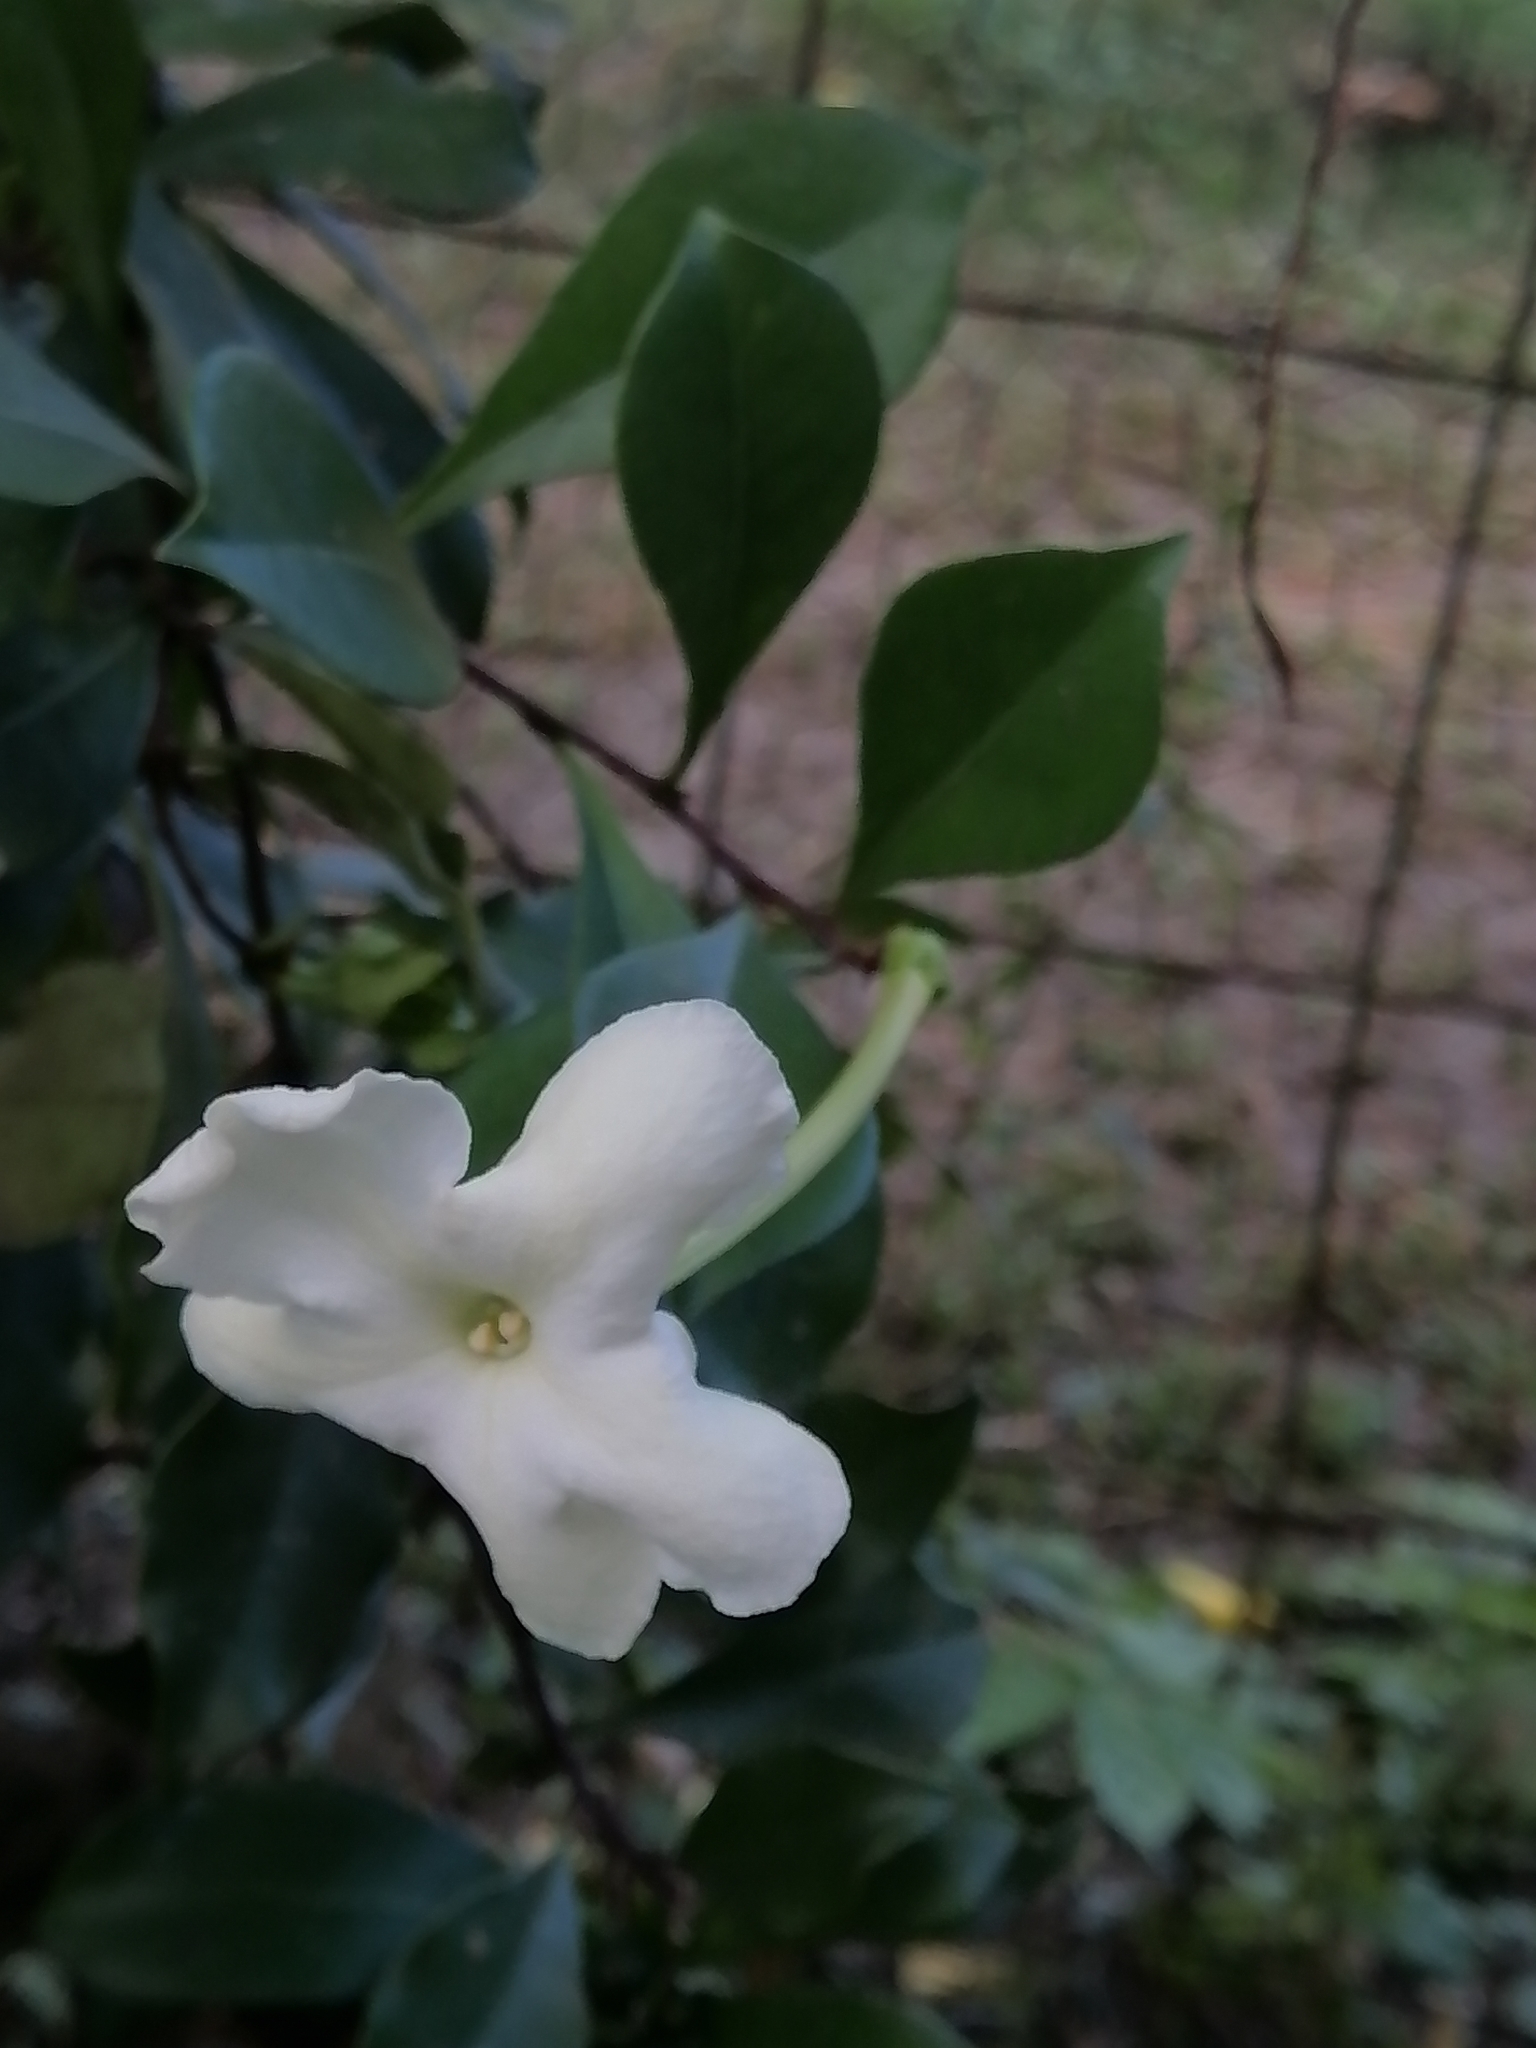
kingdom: Plantae
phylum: Tracheophyta
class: Magnoliopsida
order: Solanales
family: Solanaceae
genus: Brunfelsia
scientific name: Brunfelsia americana
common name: Lady-of-the-night
